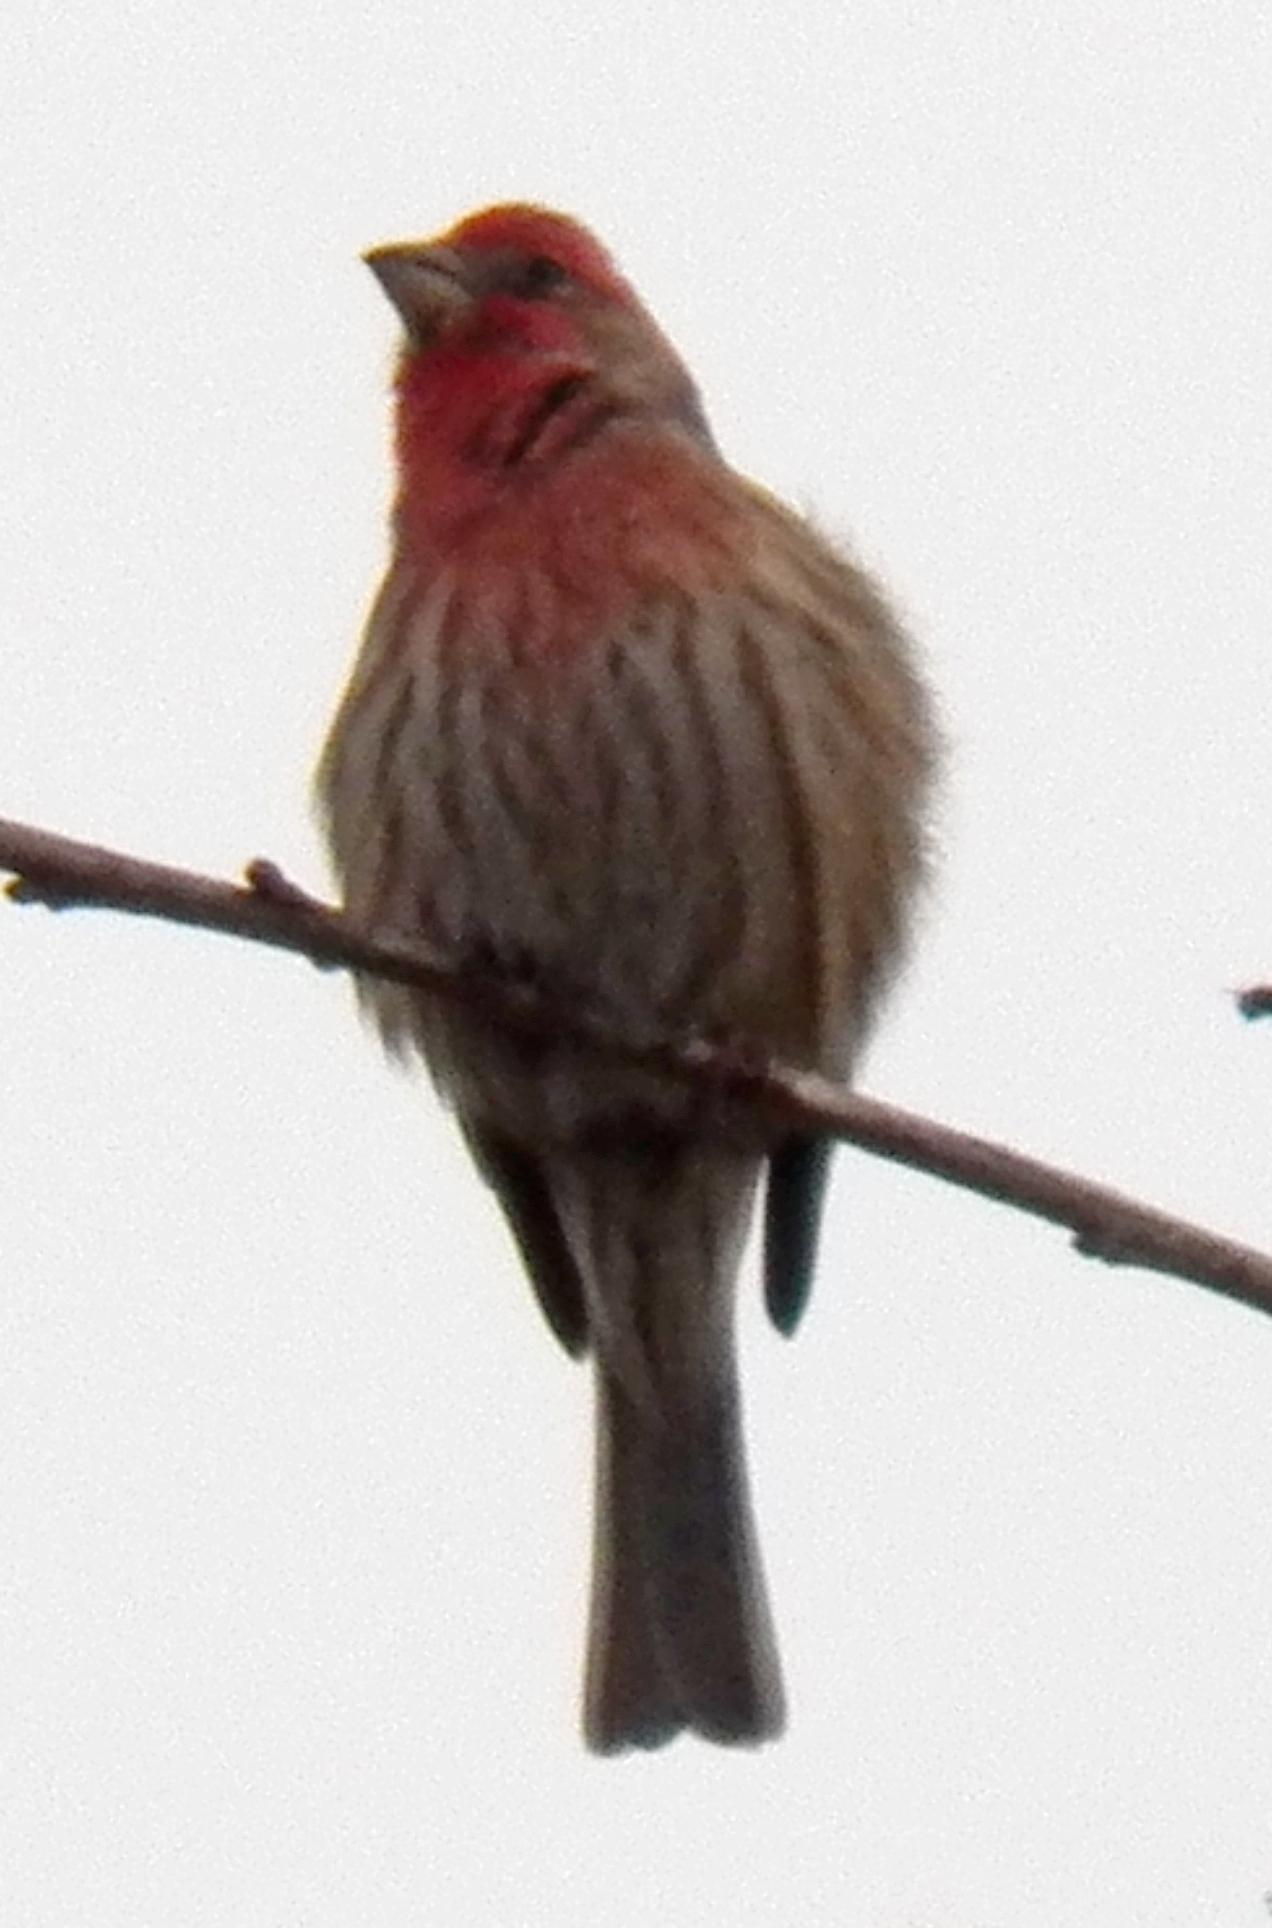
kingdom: Animalia
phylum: Chordata
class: Aves
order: Passeriformes
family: Fringillidae
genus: Haemorhous
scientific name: Haemorhous mexicanus
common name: House finch
